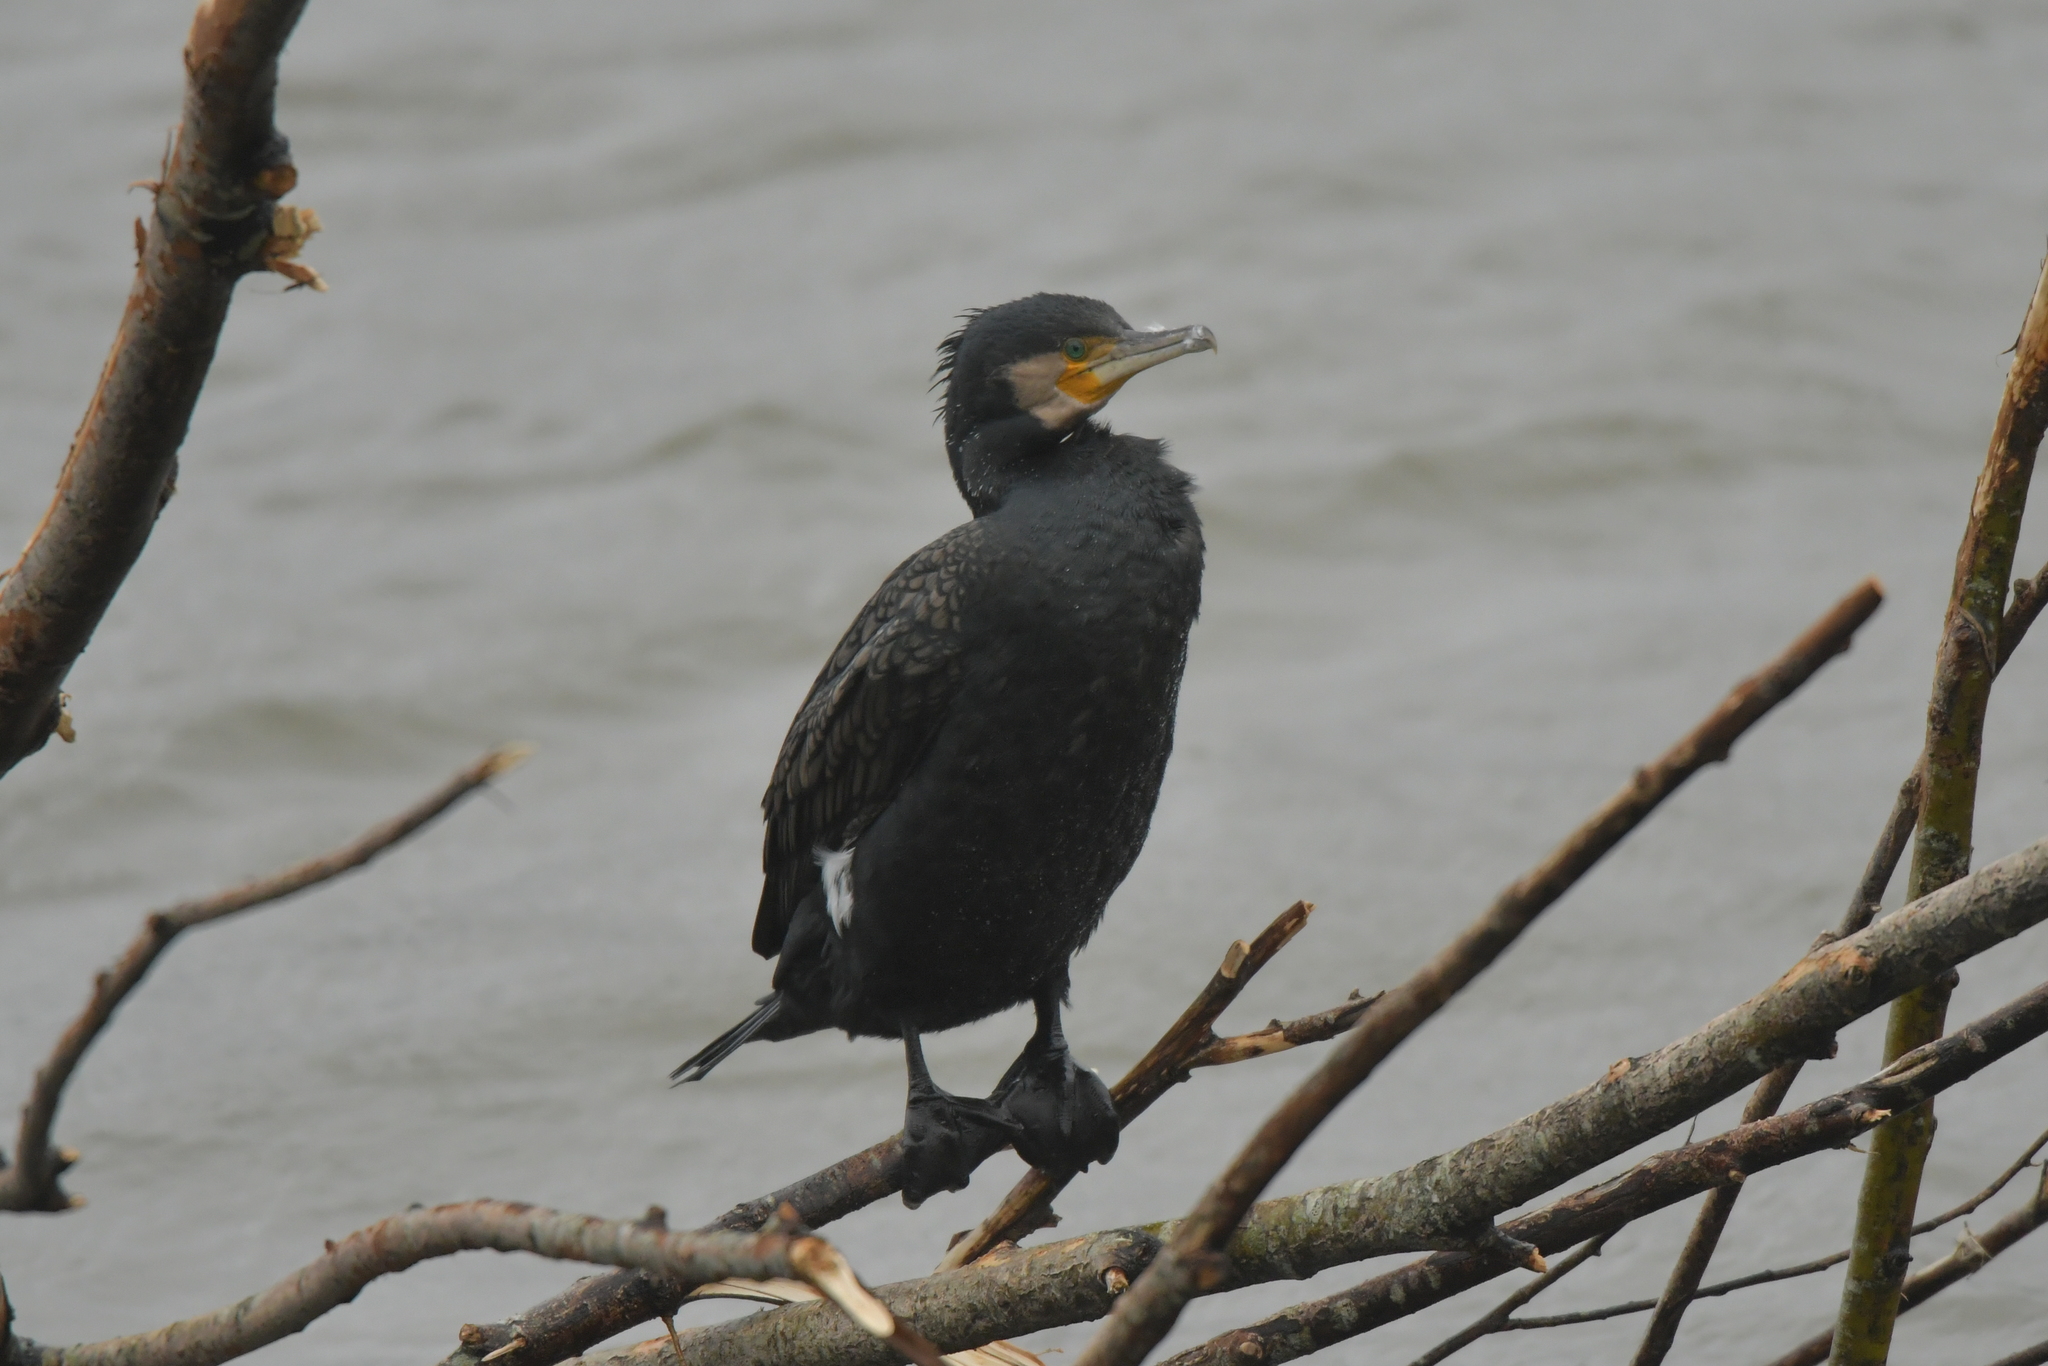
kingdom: Animalia
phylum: Chordata
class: Aves
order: Suliformes
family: Phalacrocoracidae
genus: Phalacrocorax
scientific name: Phalacrocorax carbo
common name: Great cormorant
